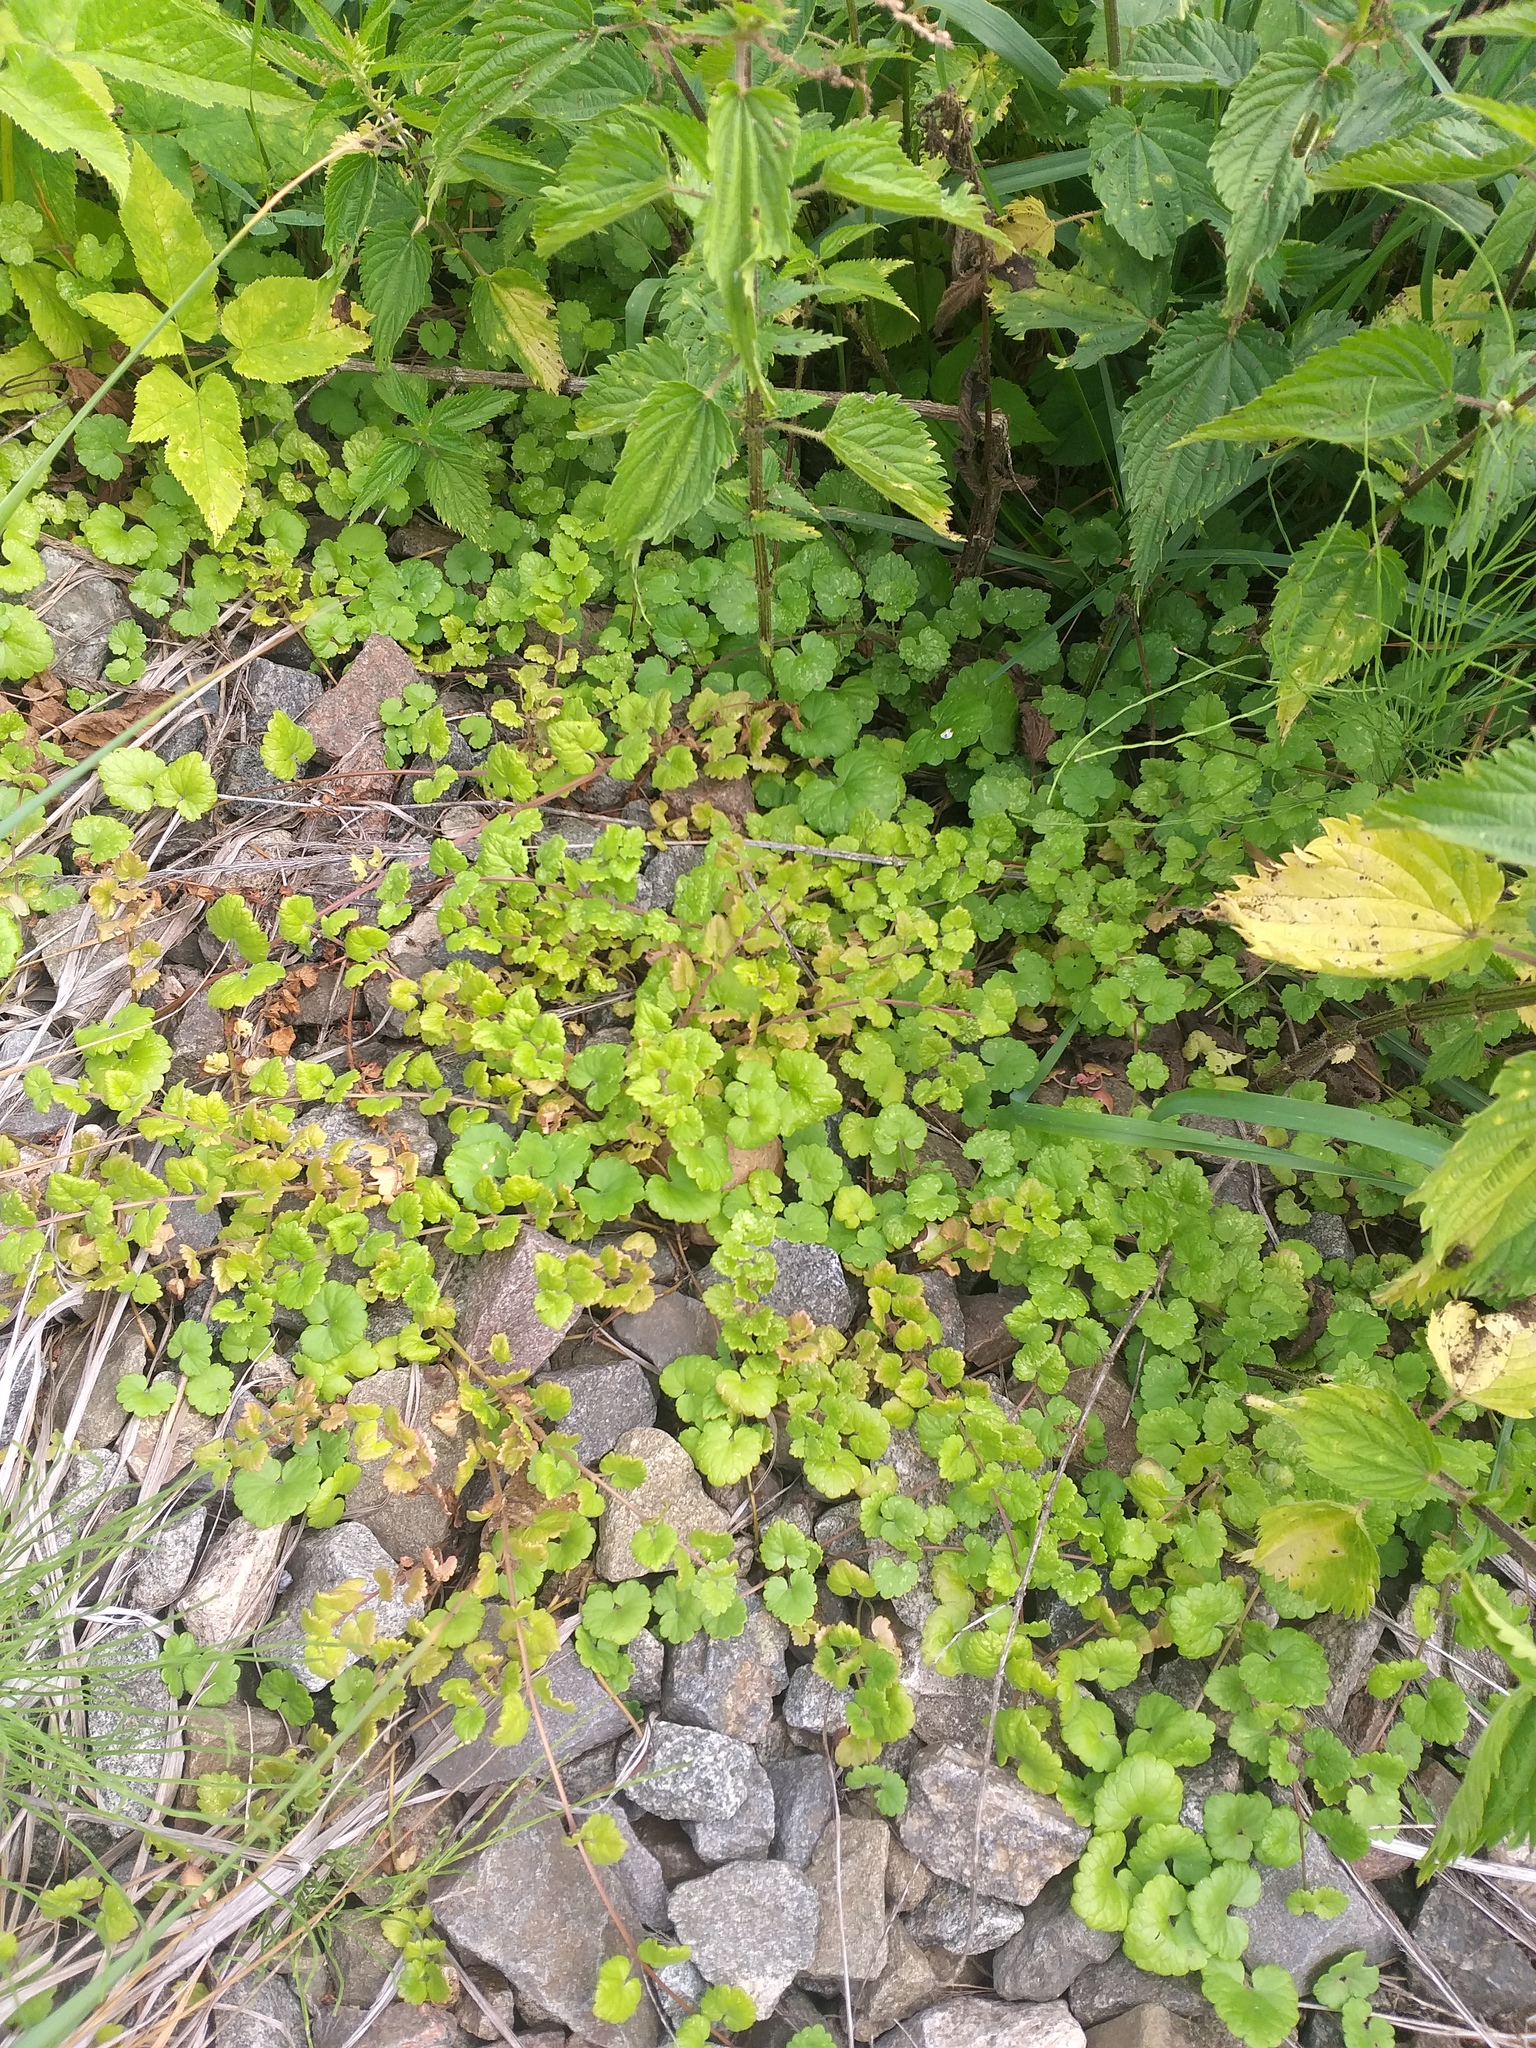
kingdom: Plantae
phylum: Tracheophyta
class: Magnoliopsida
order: Lamiales
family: Lamiaceae
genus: Glechoma
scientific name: Glechoma hederacea
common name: Ground ivy
